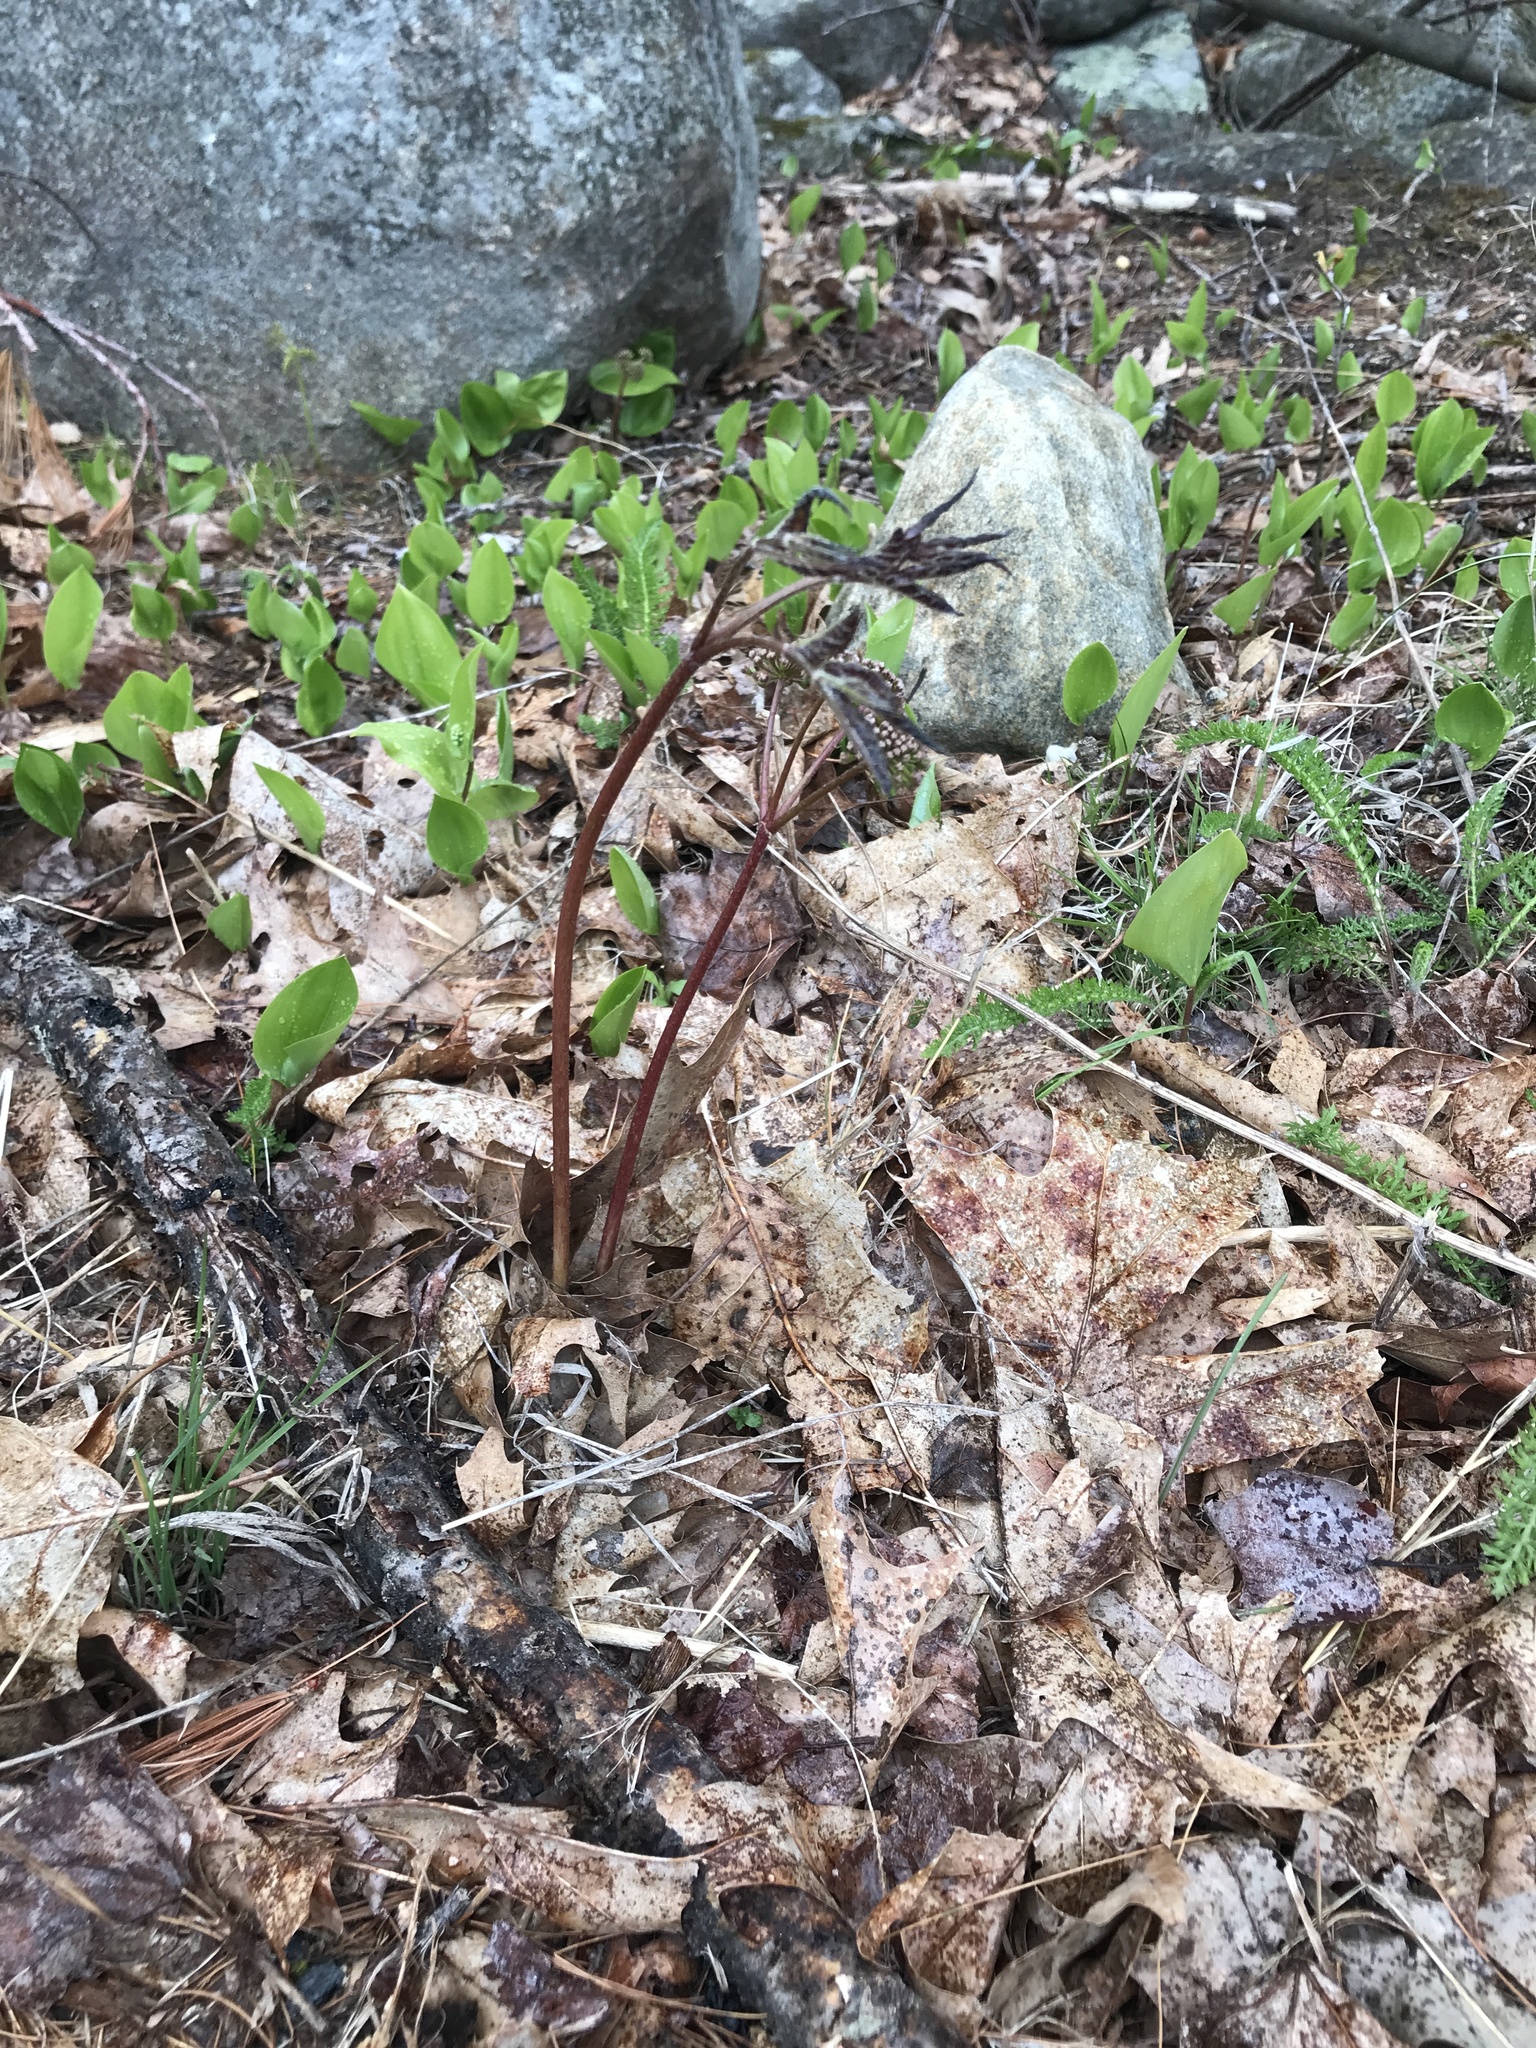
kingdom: Plantae
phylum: Tracheophyta
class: Magnoliopsida
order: Apiales
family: Araliaceae
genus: Aralia
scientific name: Aralia nudicaulis
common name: Wild sarsaparilla
